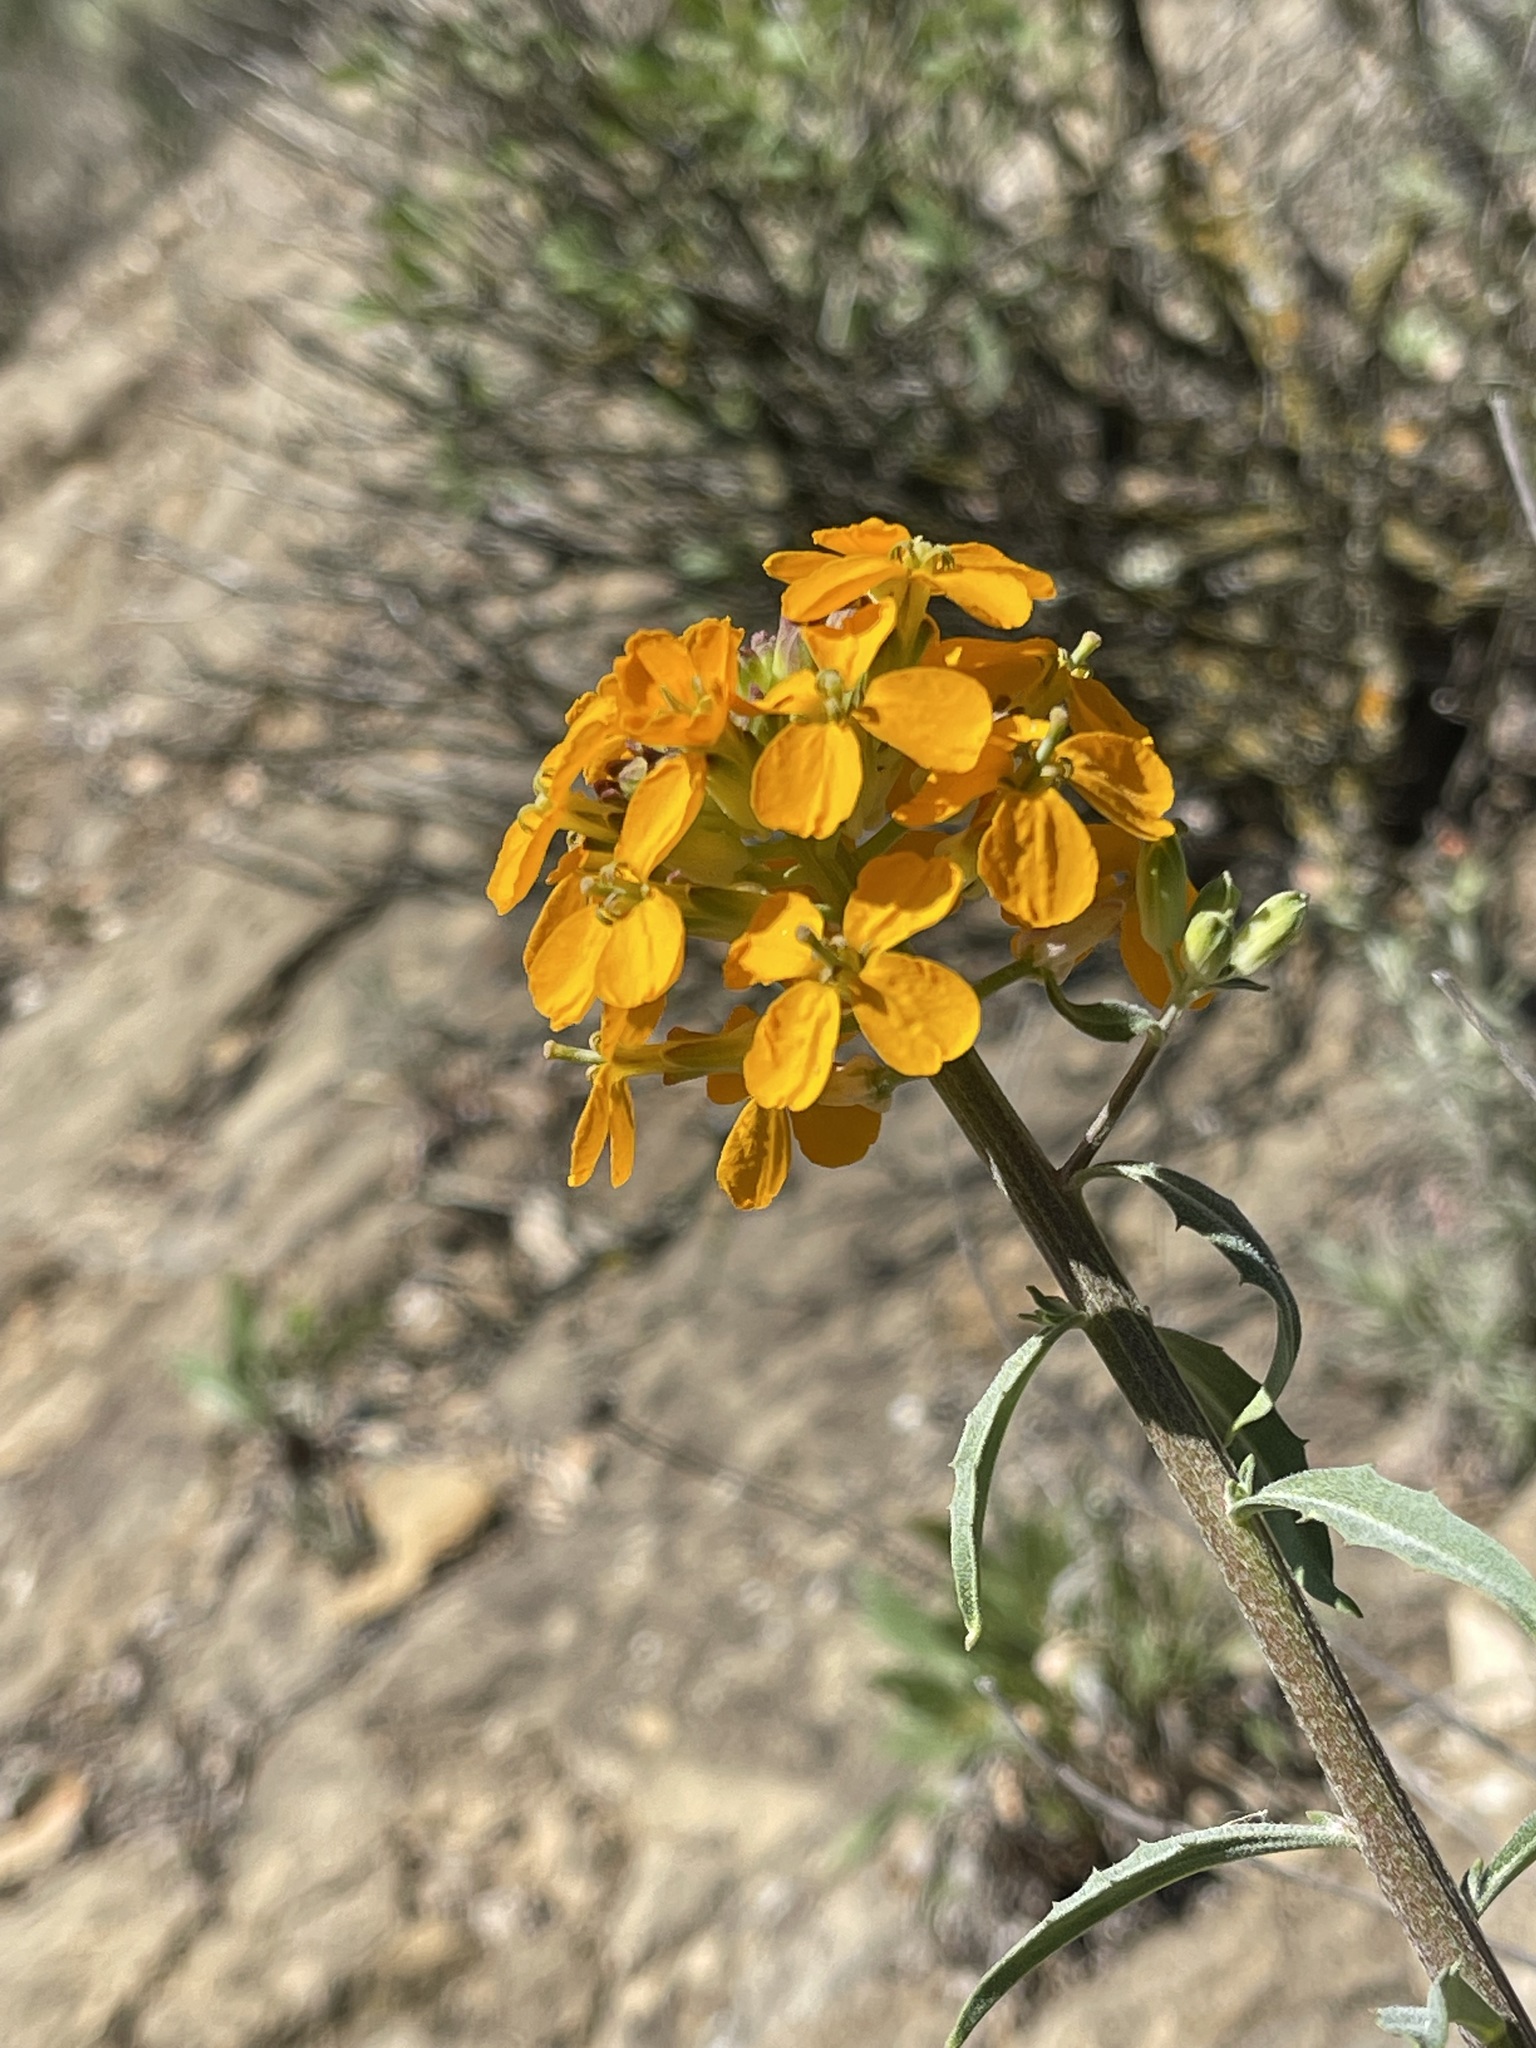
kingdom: Plantae
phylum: Tracheophyta
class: Magnoliopsida
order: Brassicales
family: Brassicaceae
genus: Erysimum
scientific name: Erysimum capitatum
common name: Western wallflower
